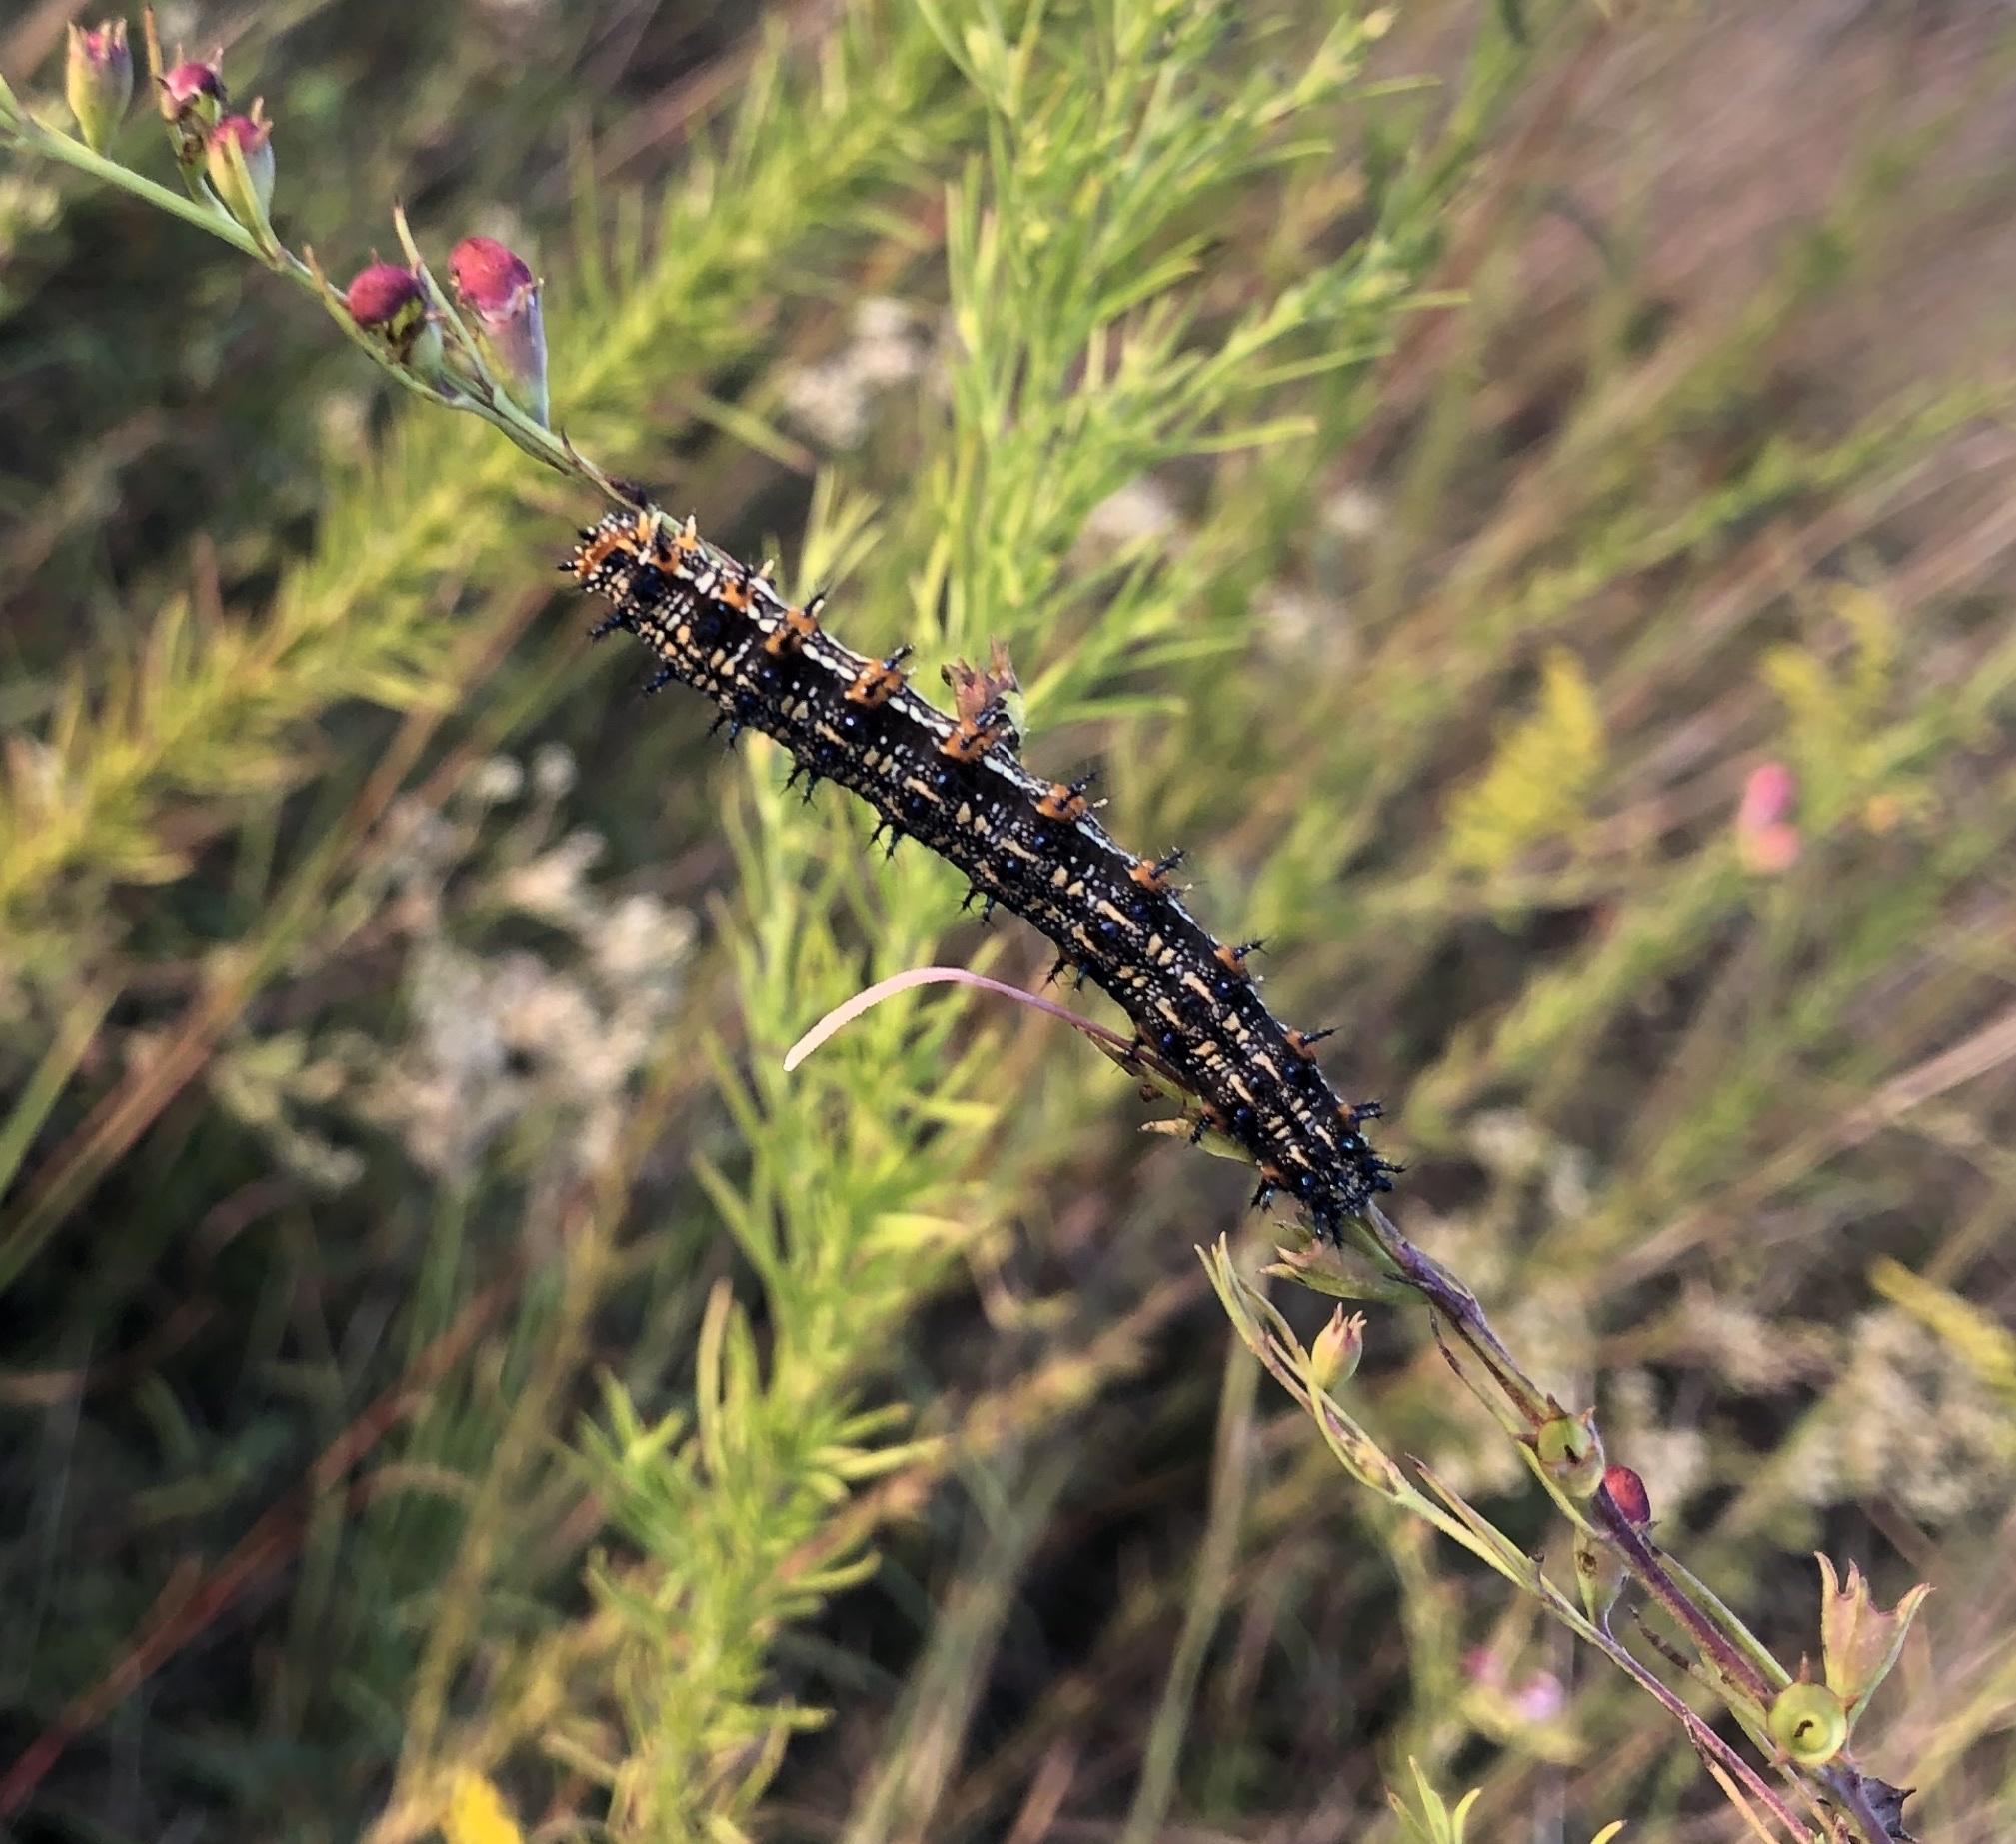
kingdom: Animalia
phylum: Arthropoda
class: Insecta
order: Lepidoptera
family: Nymphalidae
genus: Junonia
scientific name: Junonia coenia
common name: Common buckeye
